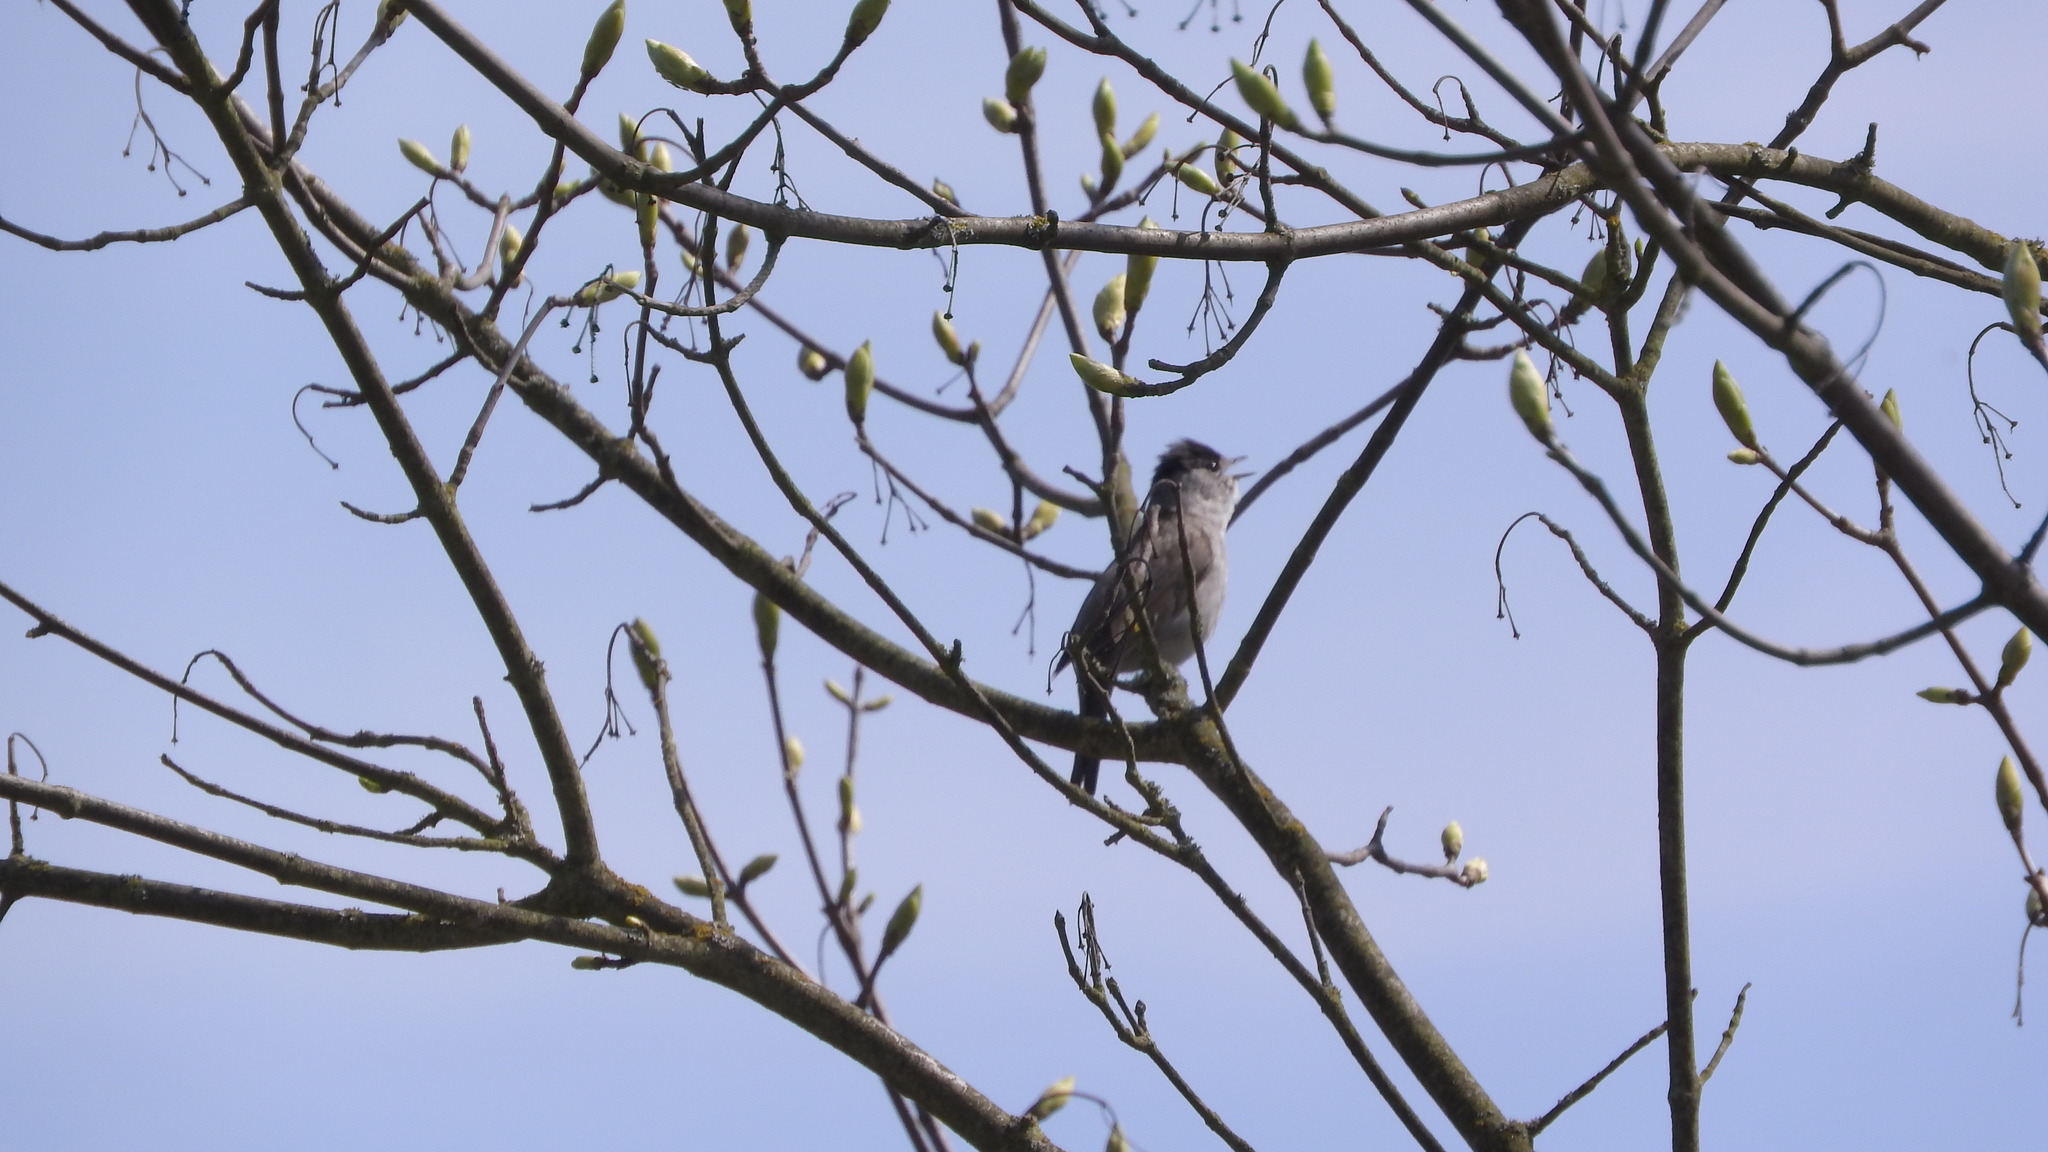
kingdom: Animalia
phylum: Chordata
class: Aves
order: Passeriformes
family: Sylviidae
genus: Sylvia
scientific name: Sylvia atricapilla
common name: Eurasian blackcap
